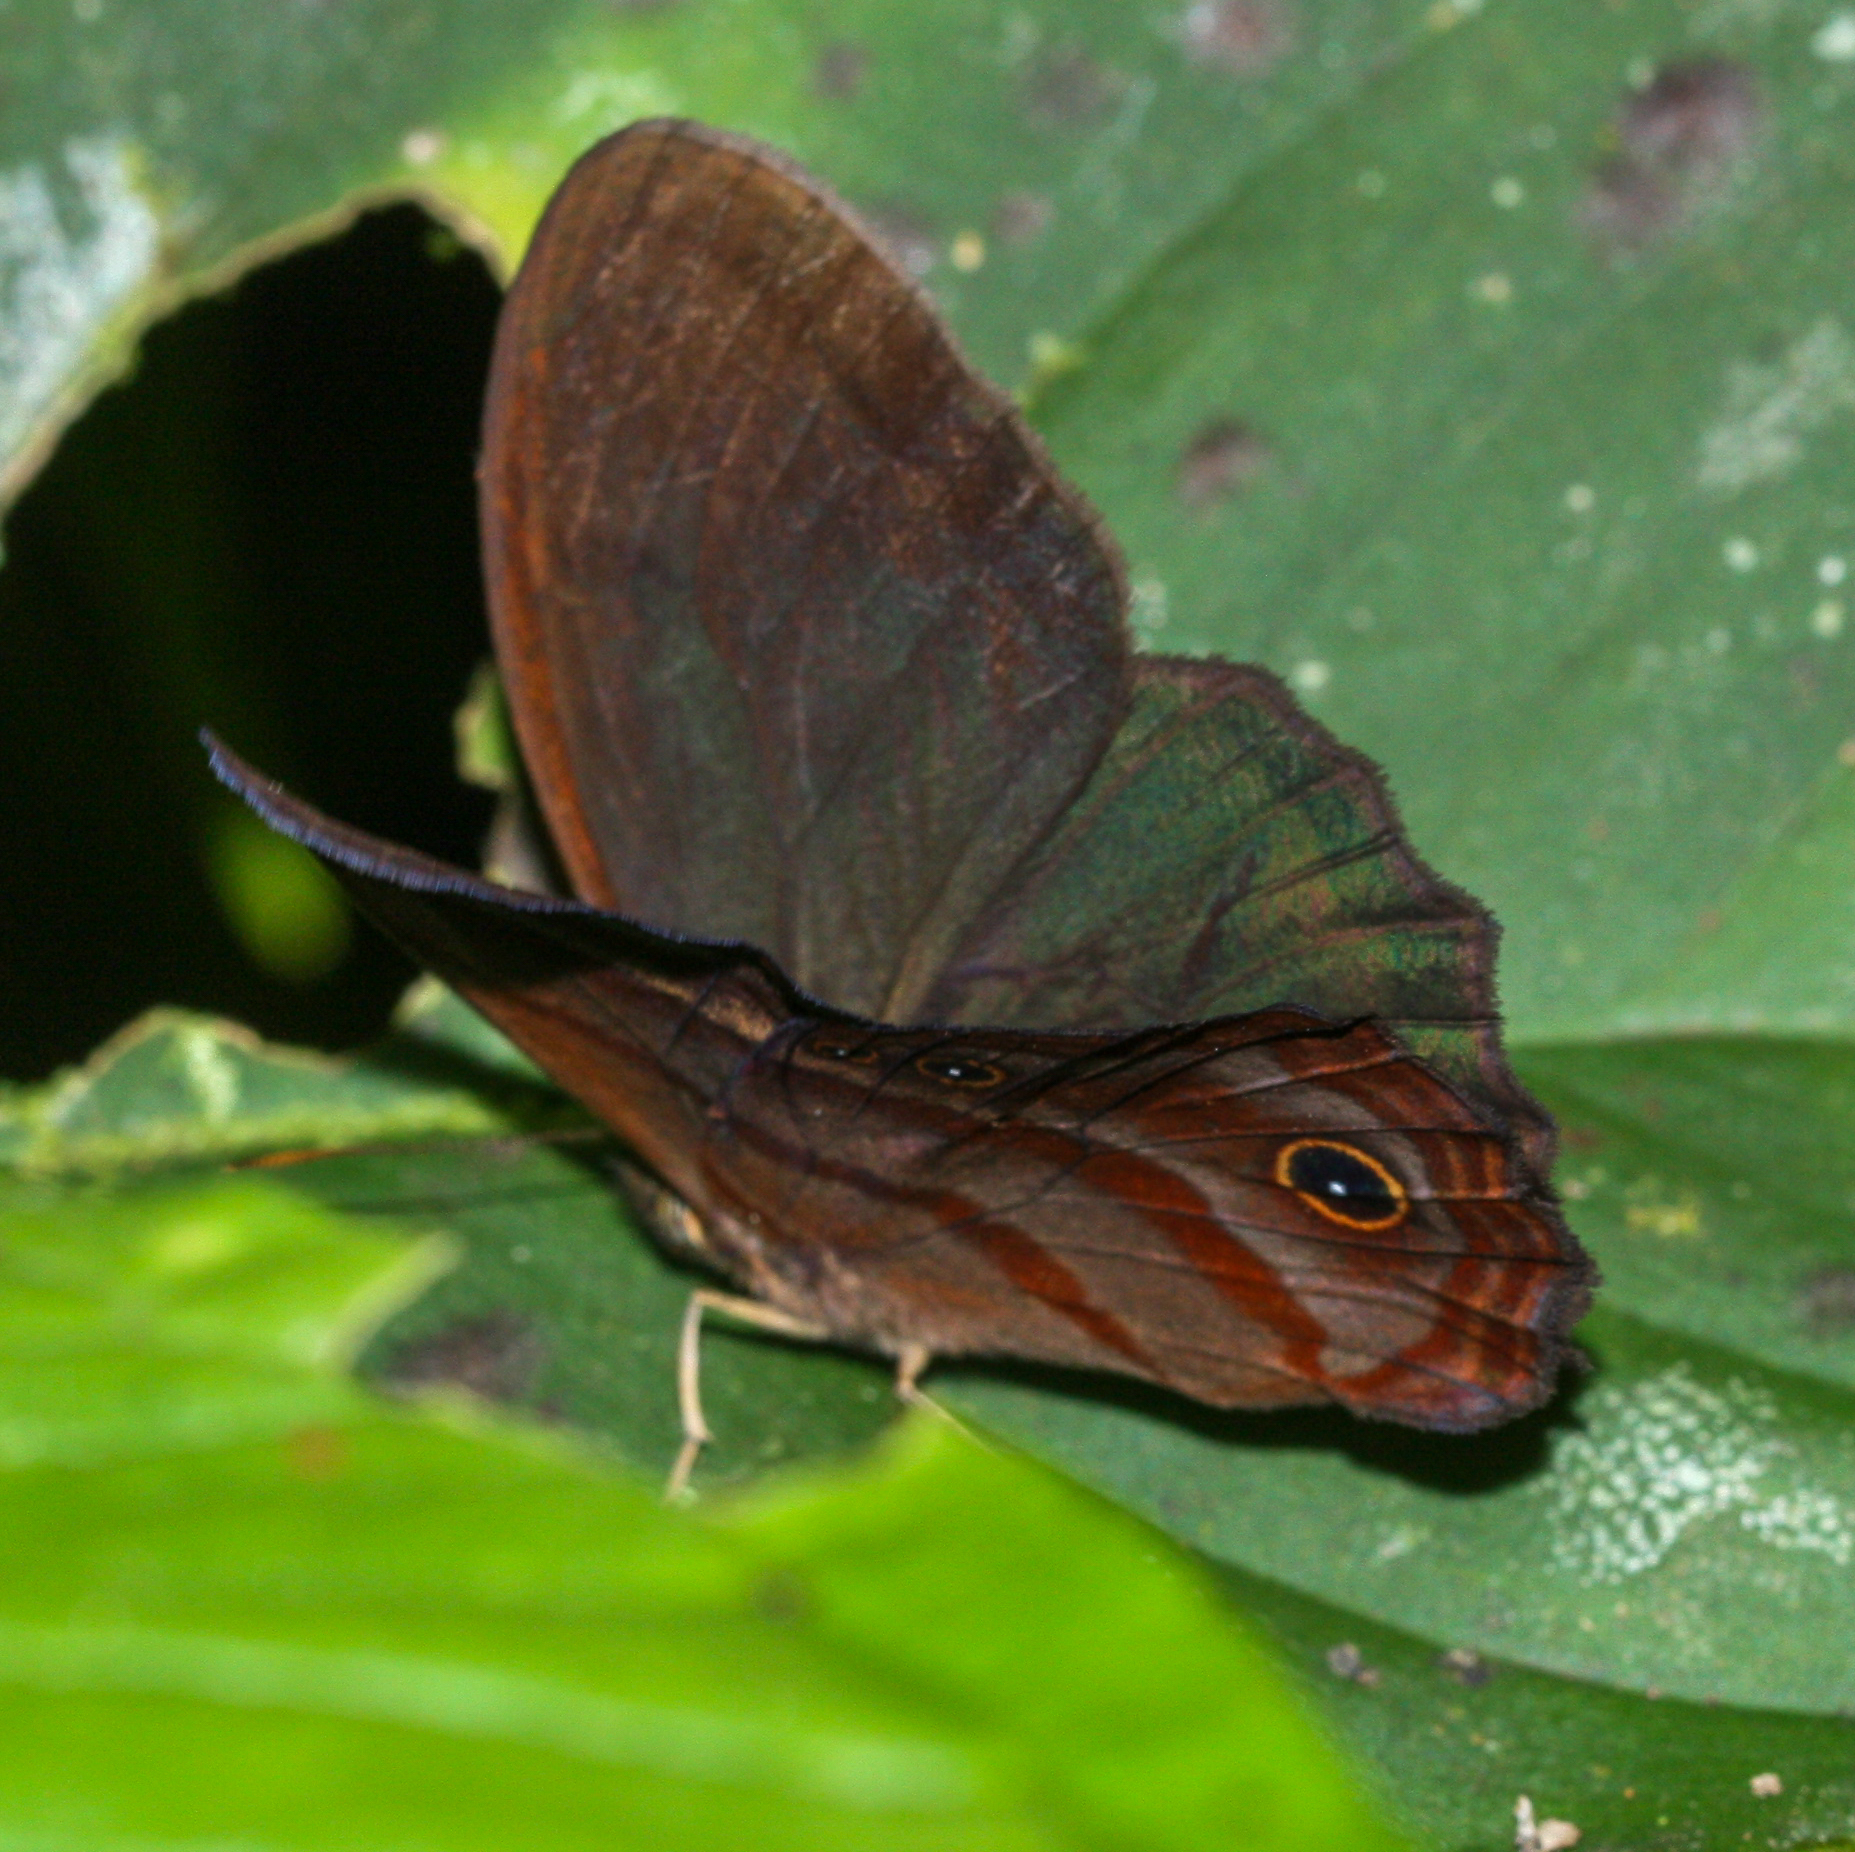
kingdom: Animalia
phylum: Arthropoda
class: Insecta
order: Lepidoptera
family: Nymphalidae
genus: Satyrotaygetis
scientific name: Satyrotaygetis
